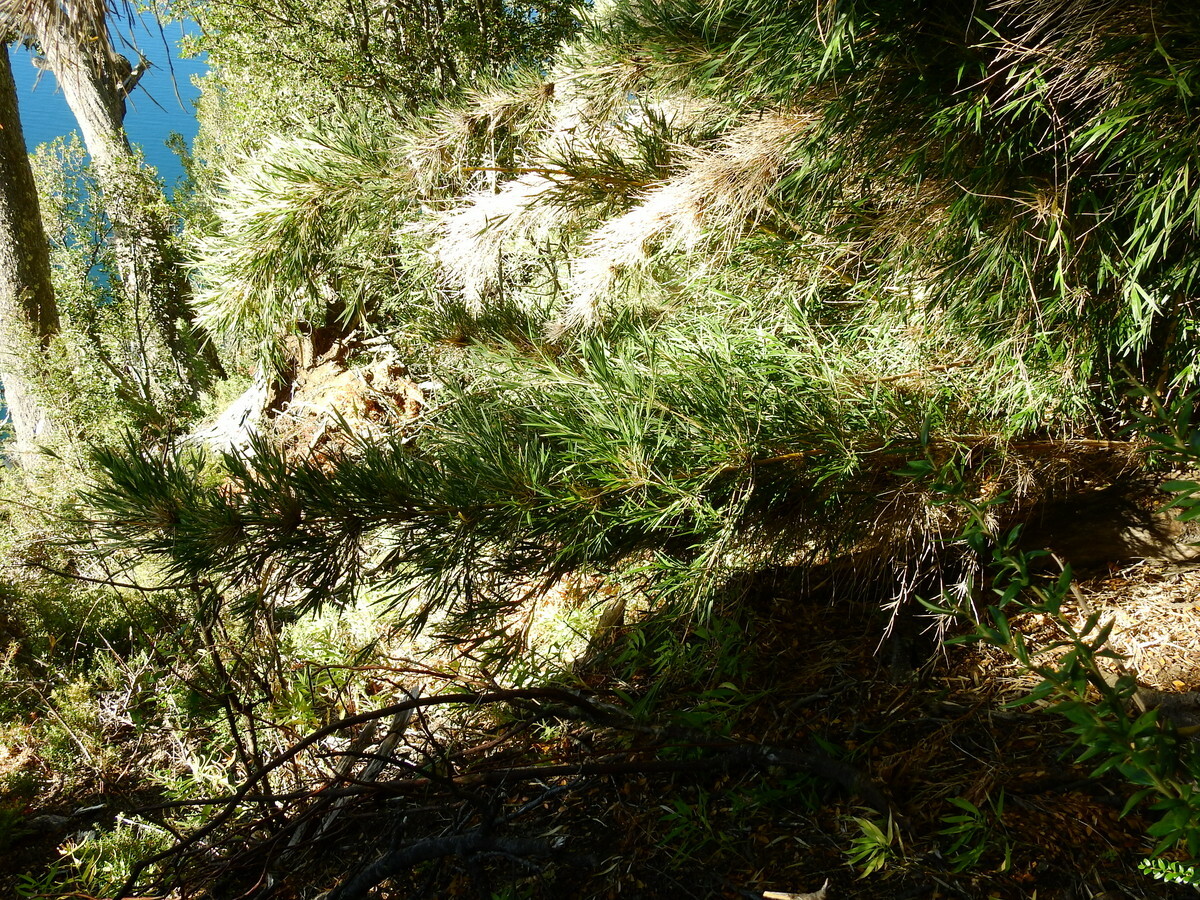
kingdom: Plantae
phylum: Tracheophyta
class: Liliopsida
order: Poales
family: Poaceae
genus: Chusquea
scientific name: Chusquea culeou
